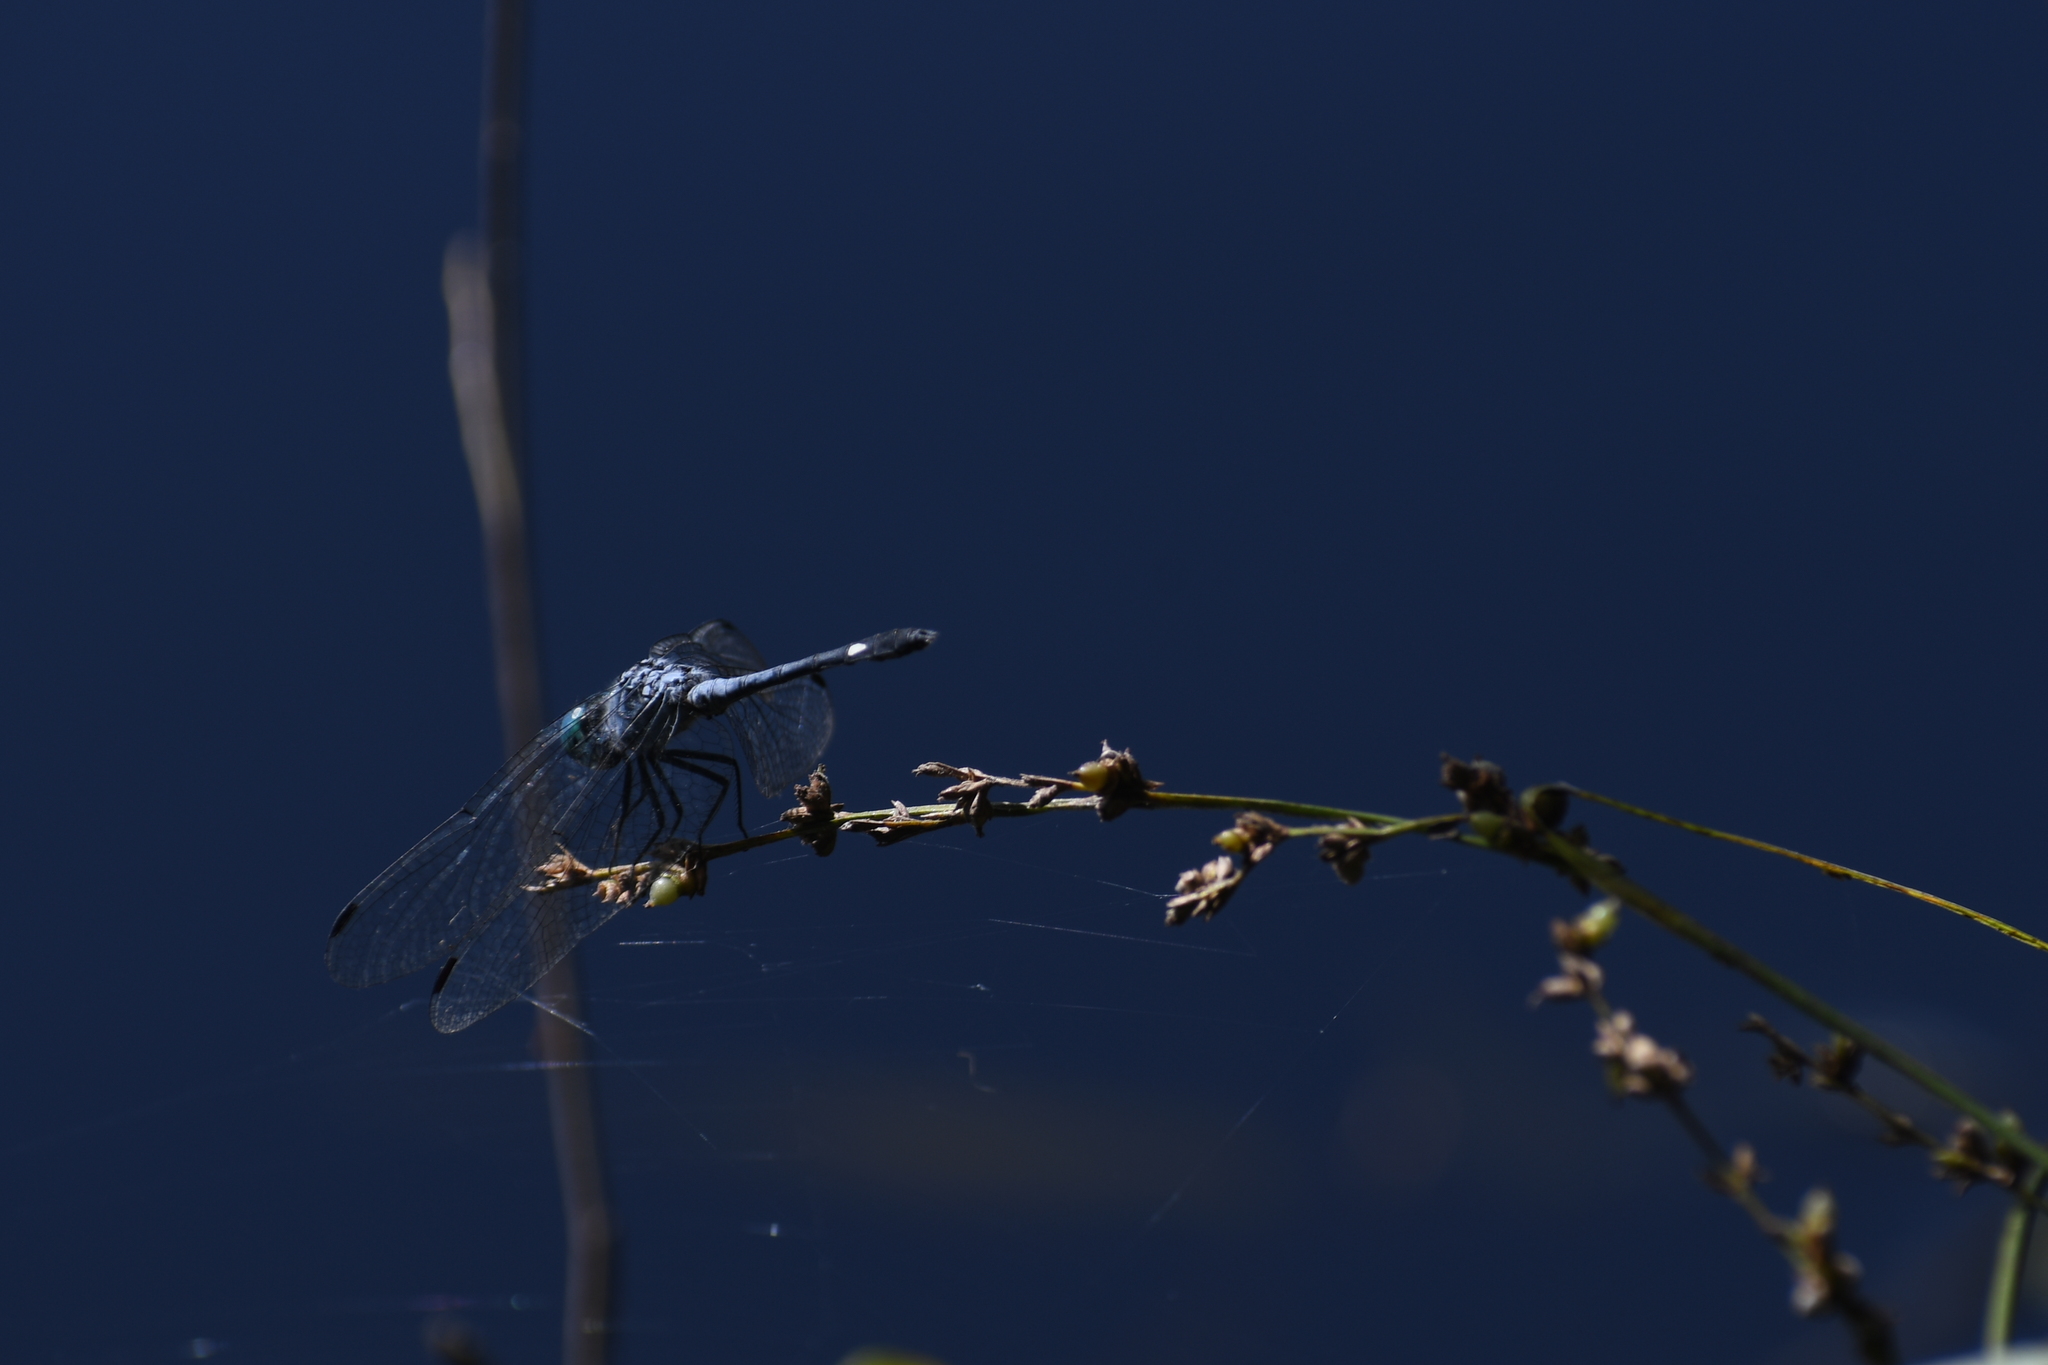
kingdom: Animalia
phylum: Arthropoda
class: Insecta
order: Odonata
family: Libellulidae
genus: Micrathyria
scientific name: Micrathyria aequalis
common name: Spot-tailed dasher
